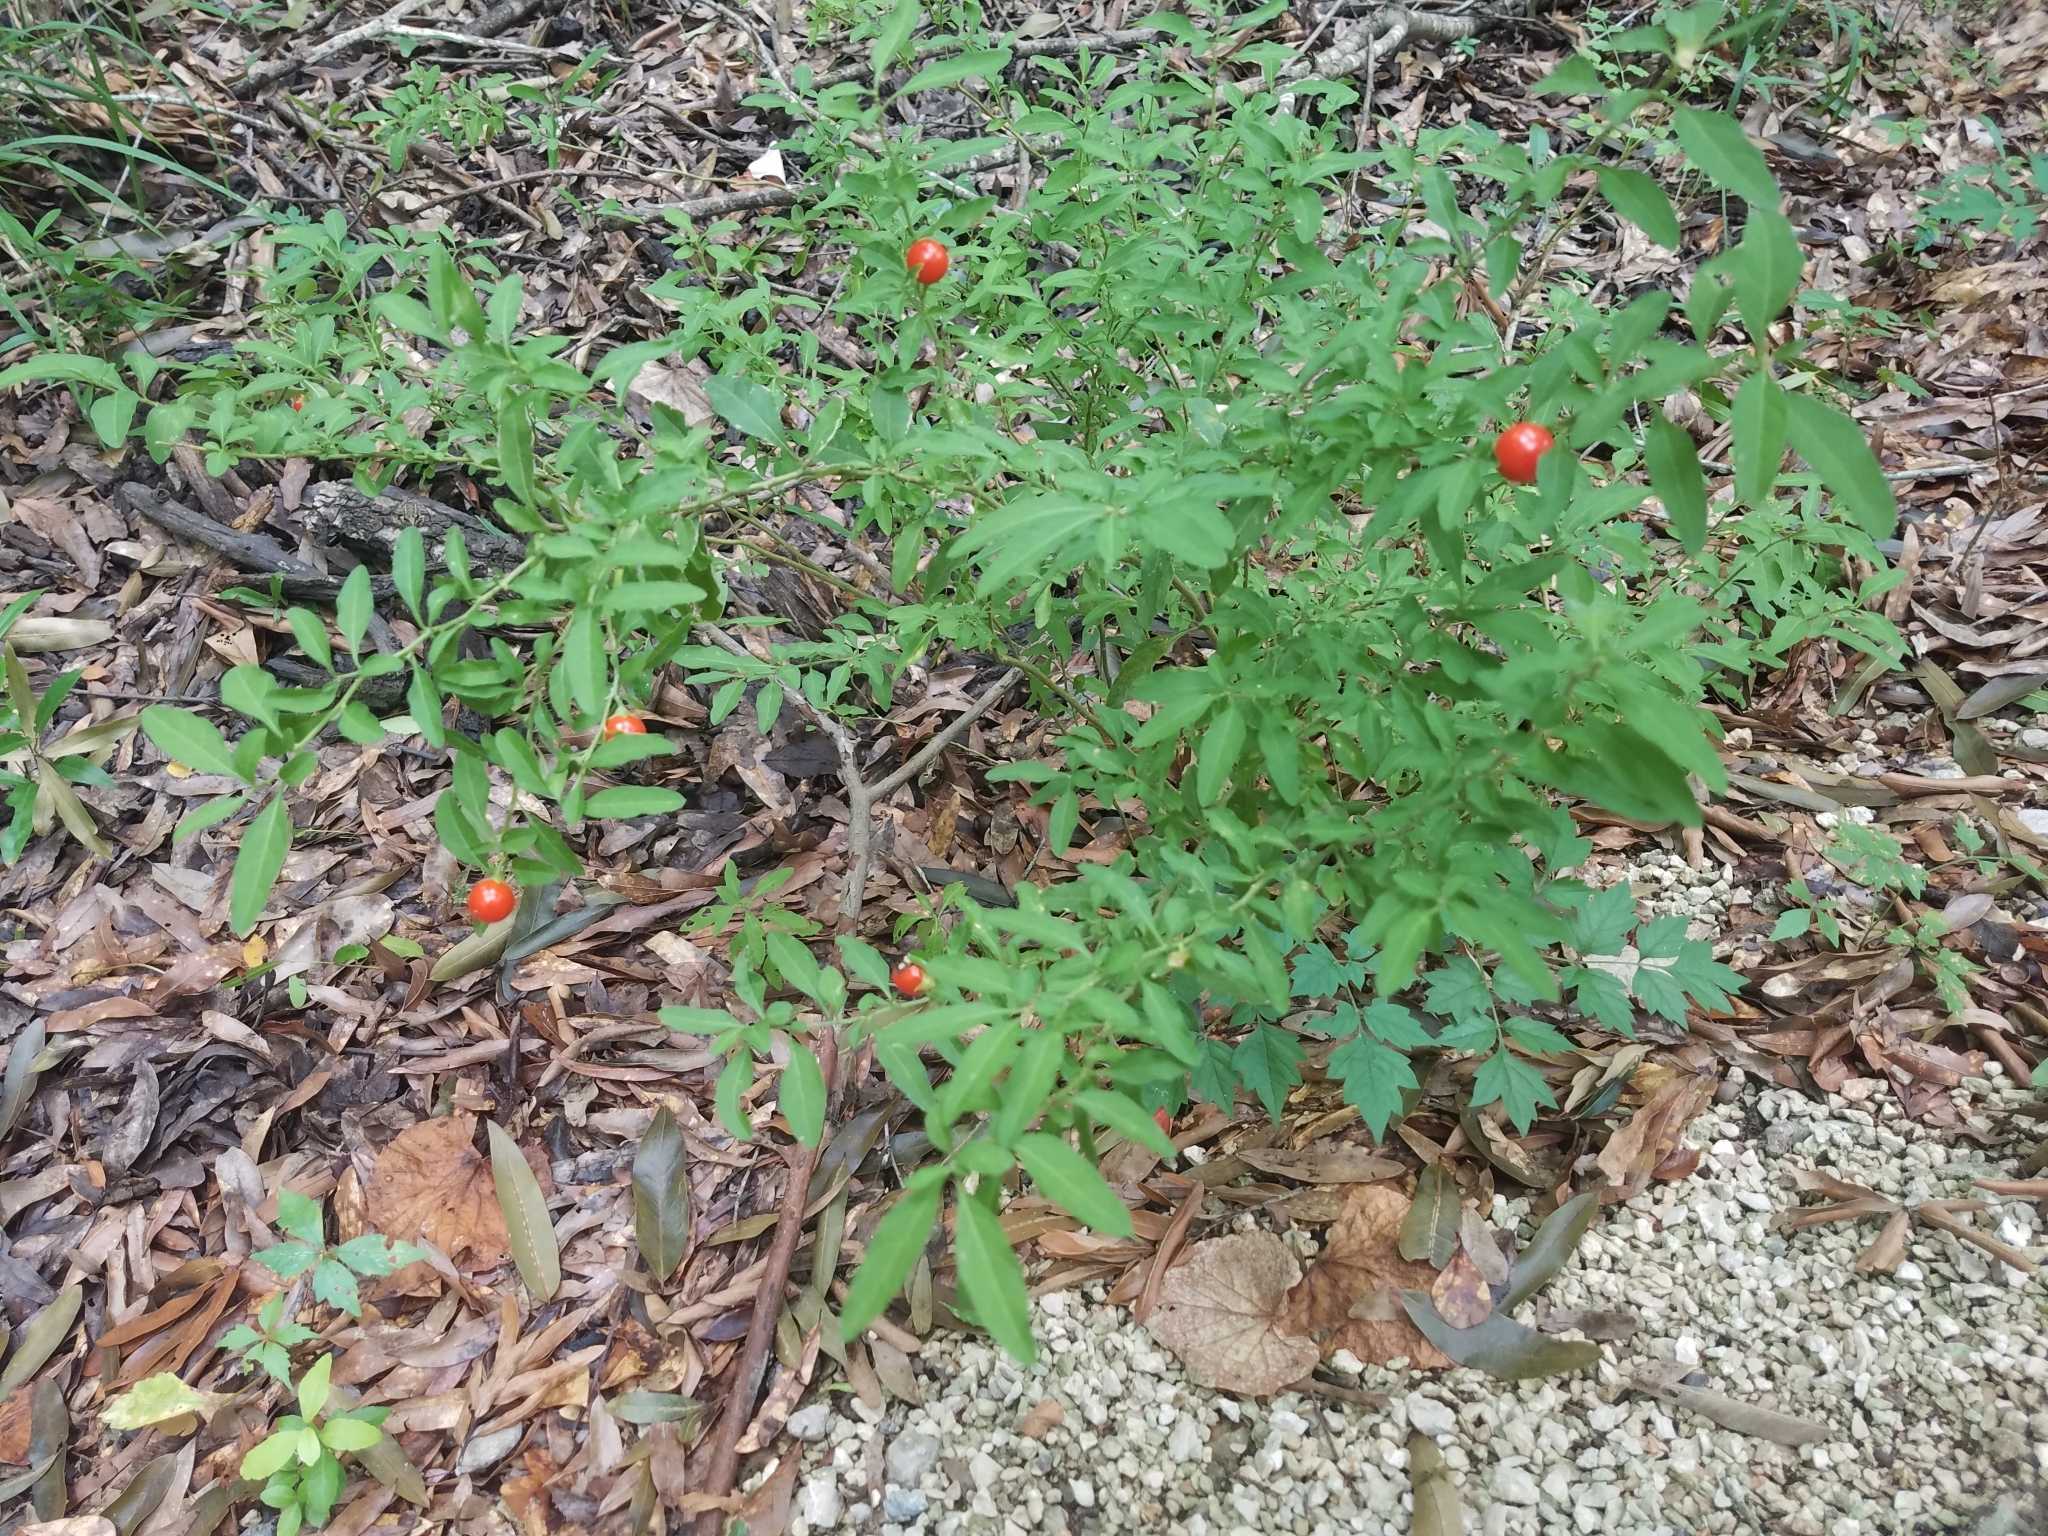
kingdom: Plantae
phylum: Tracheophyta
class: Magnoliopsida
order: Solanales
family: Solanaceae
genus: Solanum
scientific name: Solanum pseudocapsicum
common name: Jerusalem cherry
